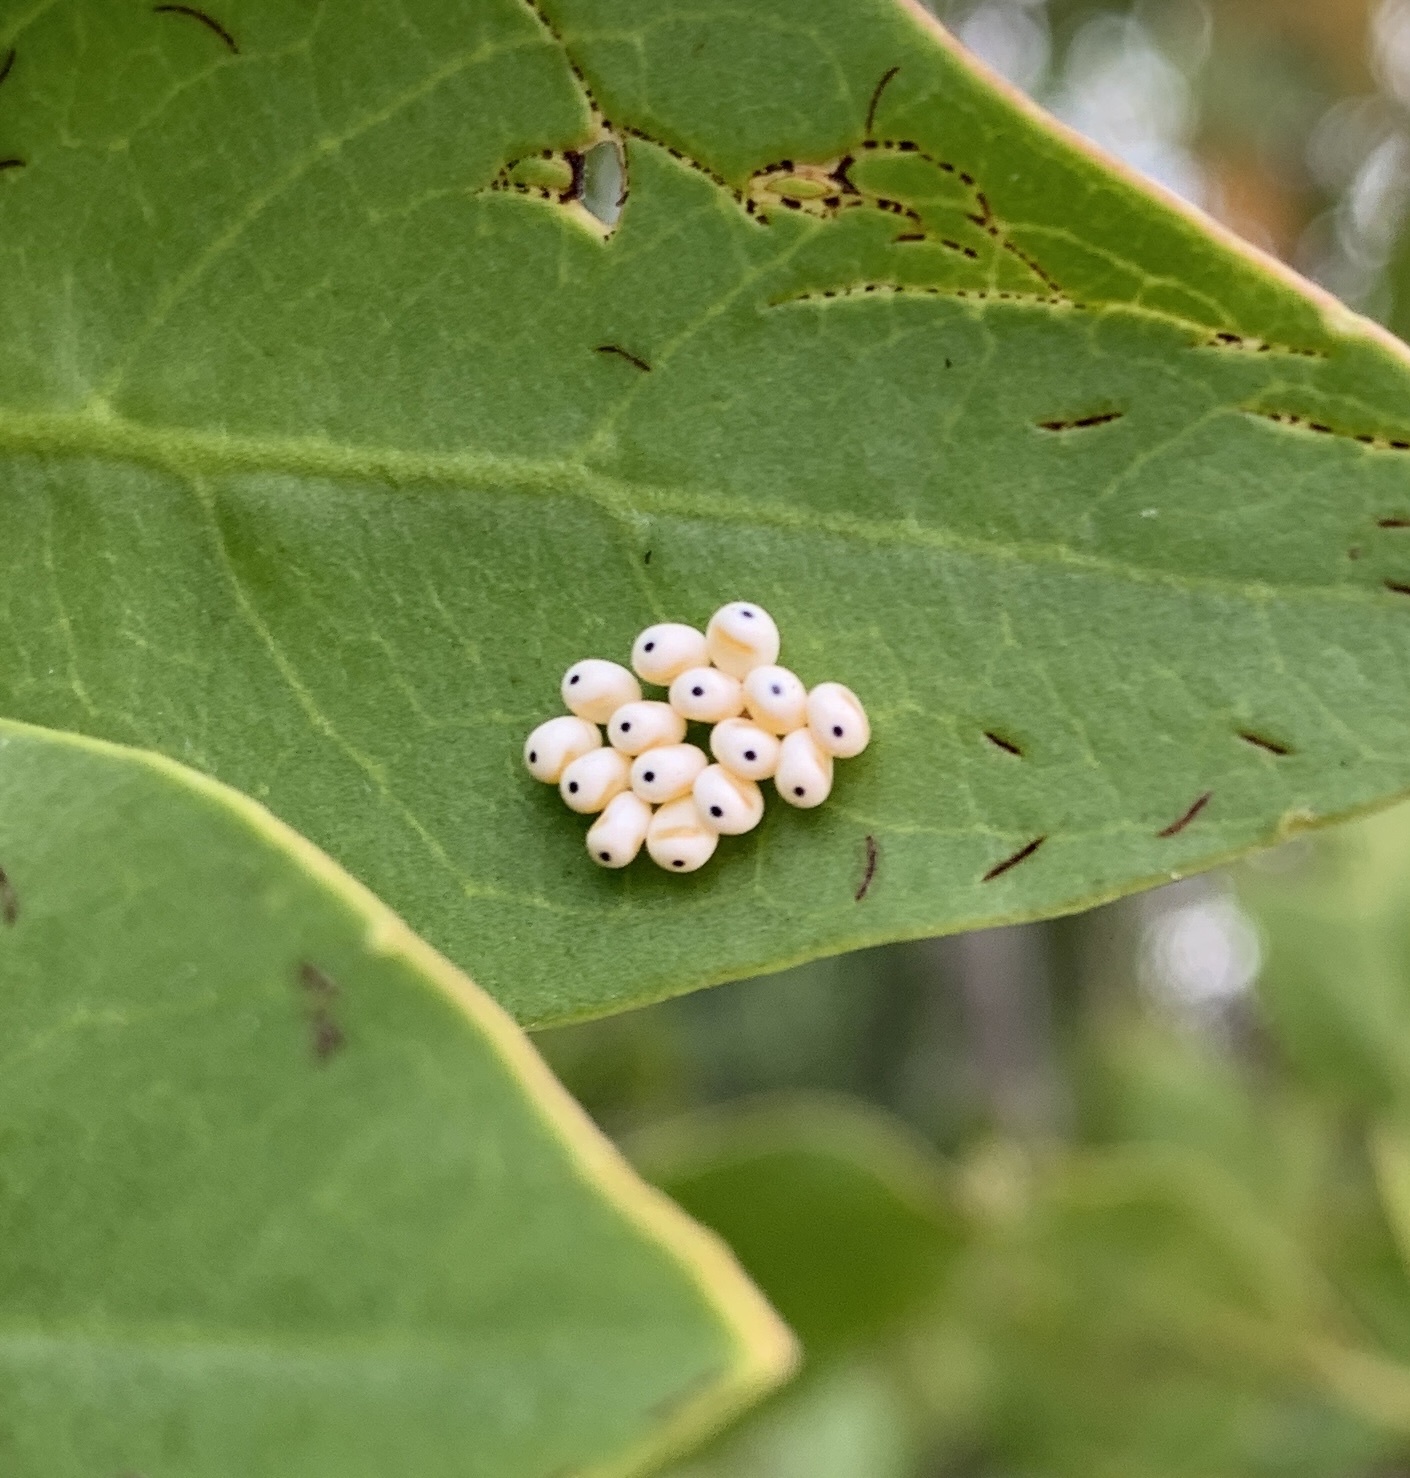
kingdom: Animalia
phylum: Arthropoda
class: Insecta
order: Lepidoptera
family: Saturniidae
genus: Automeris
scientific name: Automeris io
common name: Io moth
